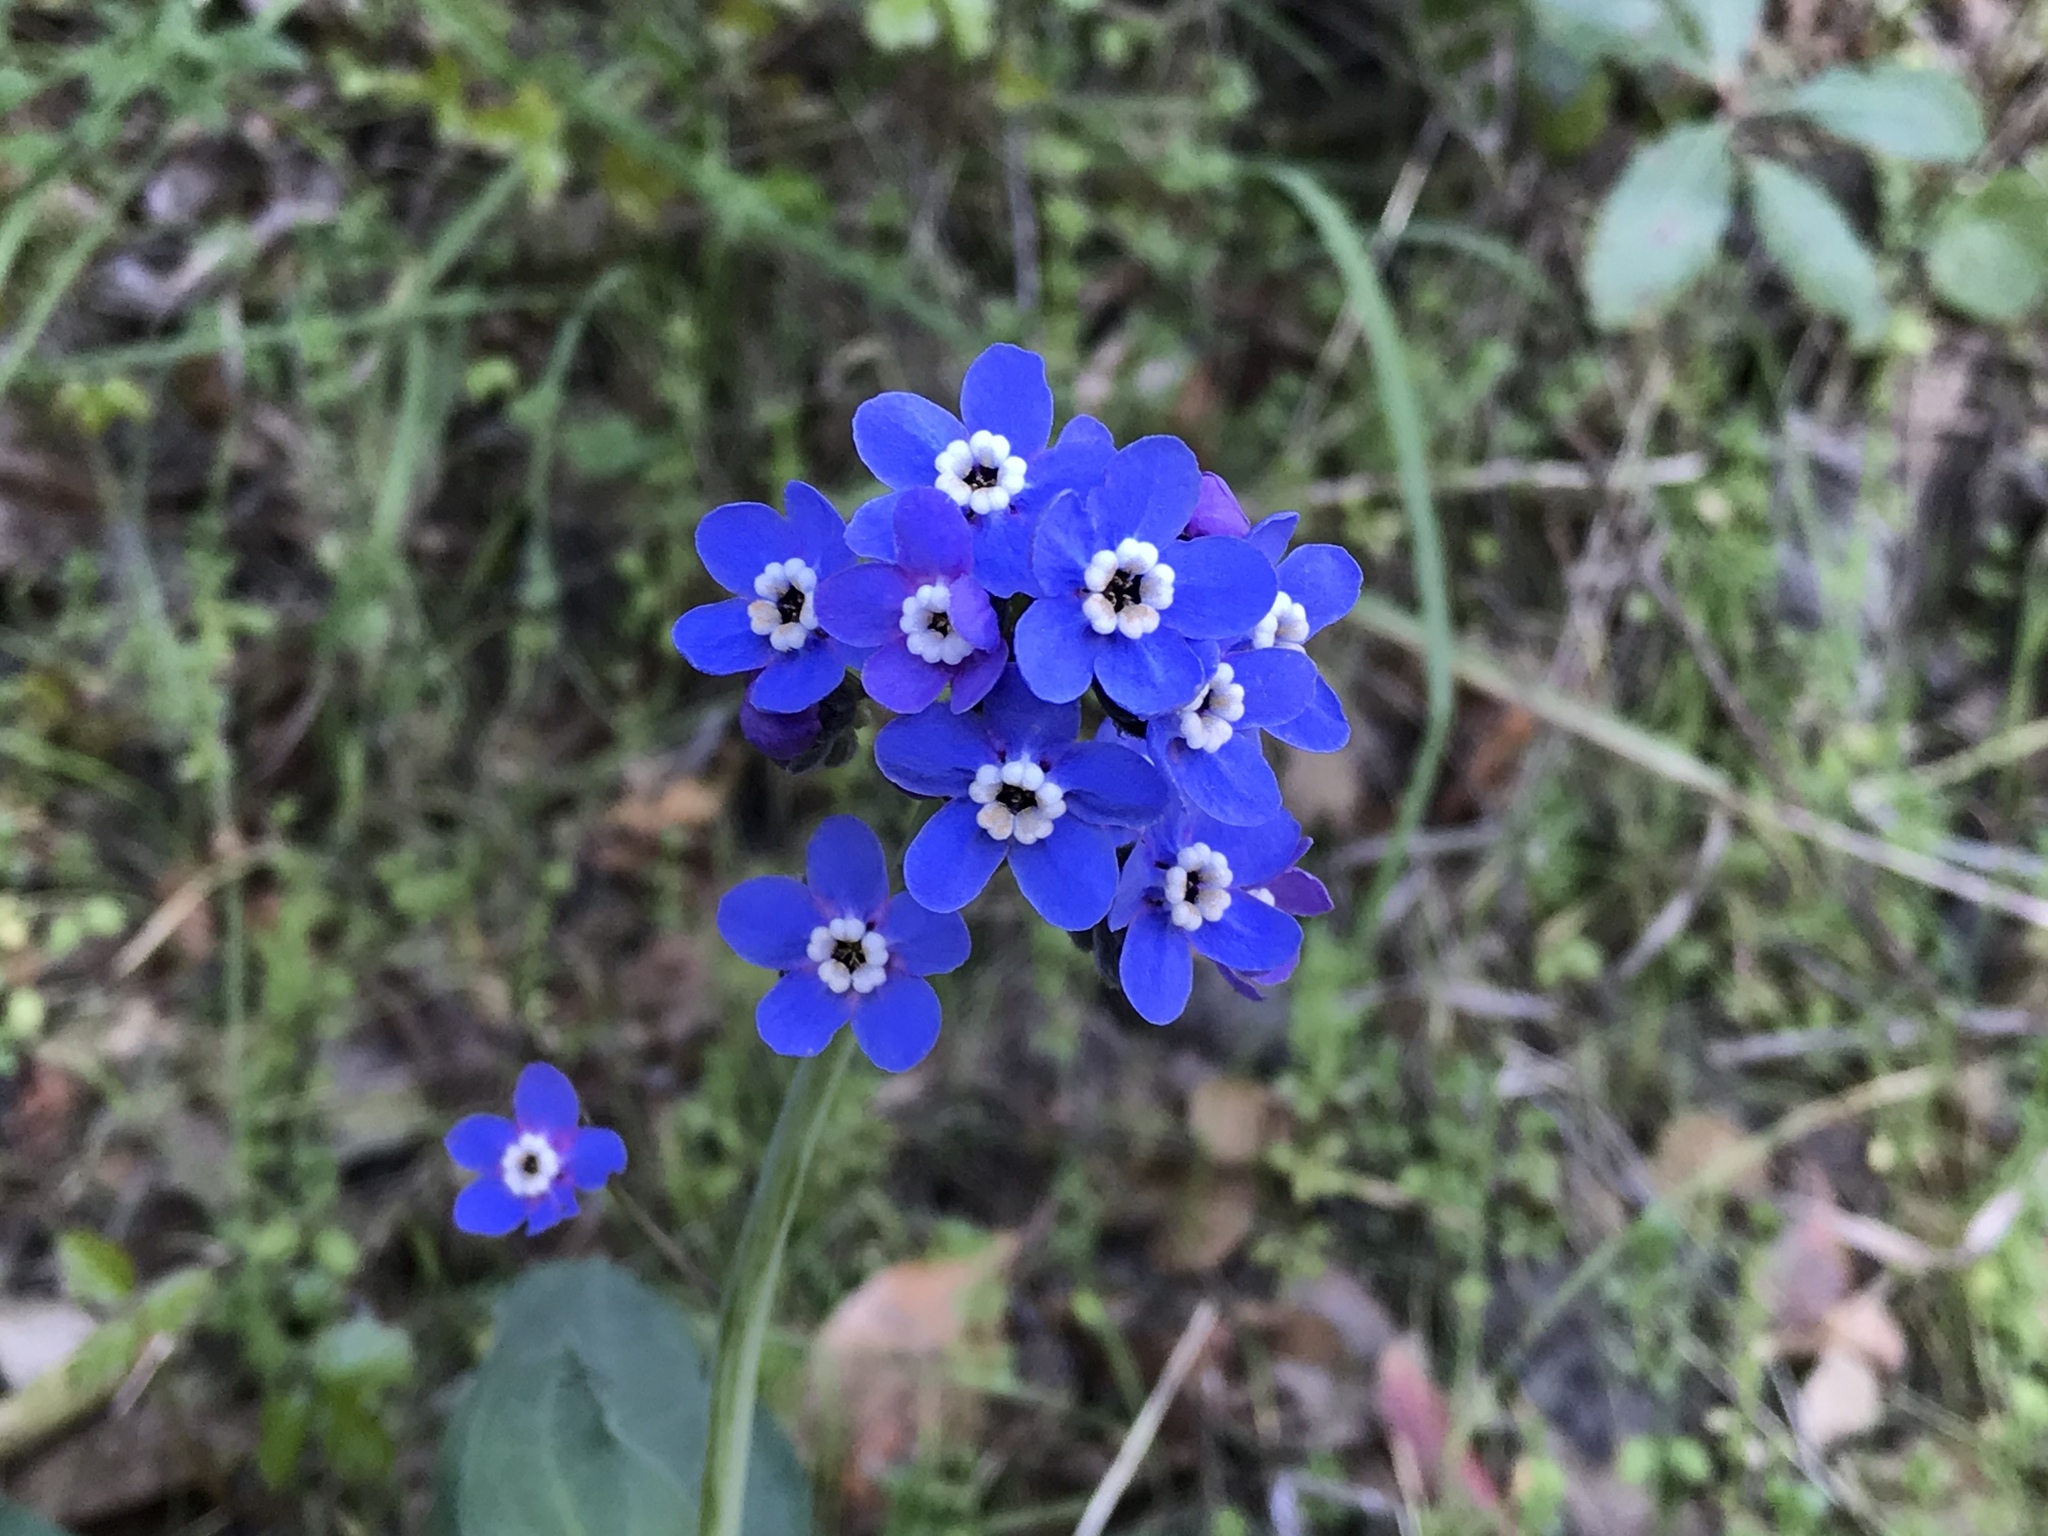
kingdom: Plantae
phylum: Tracheophyta
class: Magnoliopsida
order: Boraginales
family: Boraginaceae
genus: Adelinia
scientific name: Adelinia grande
